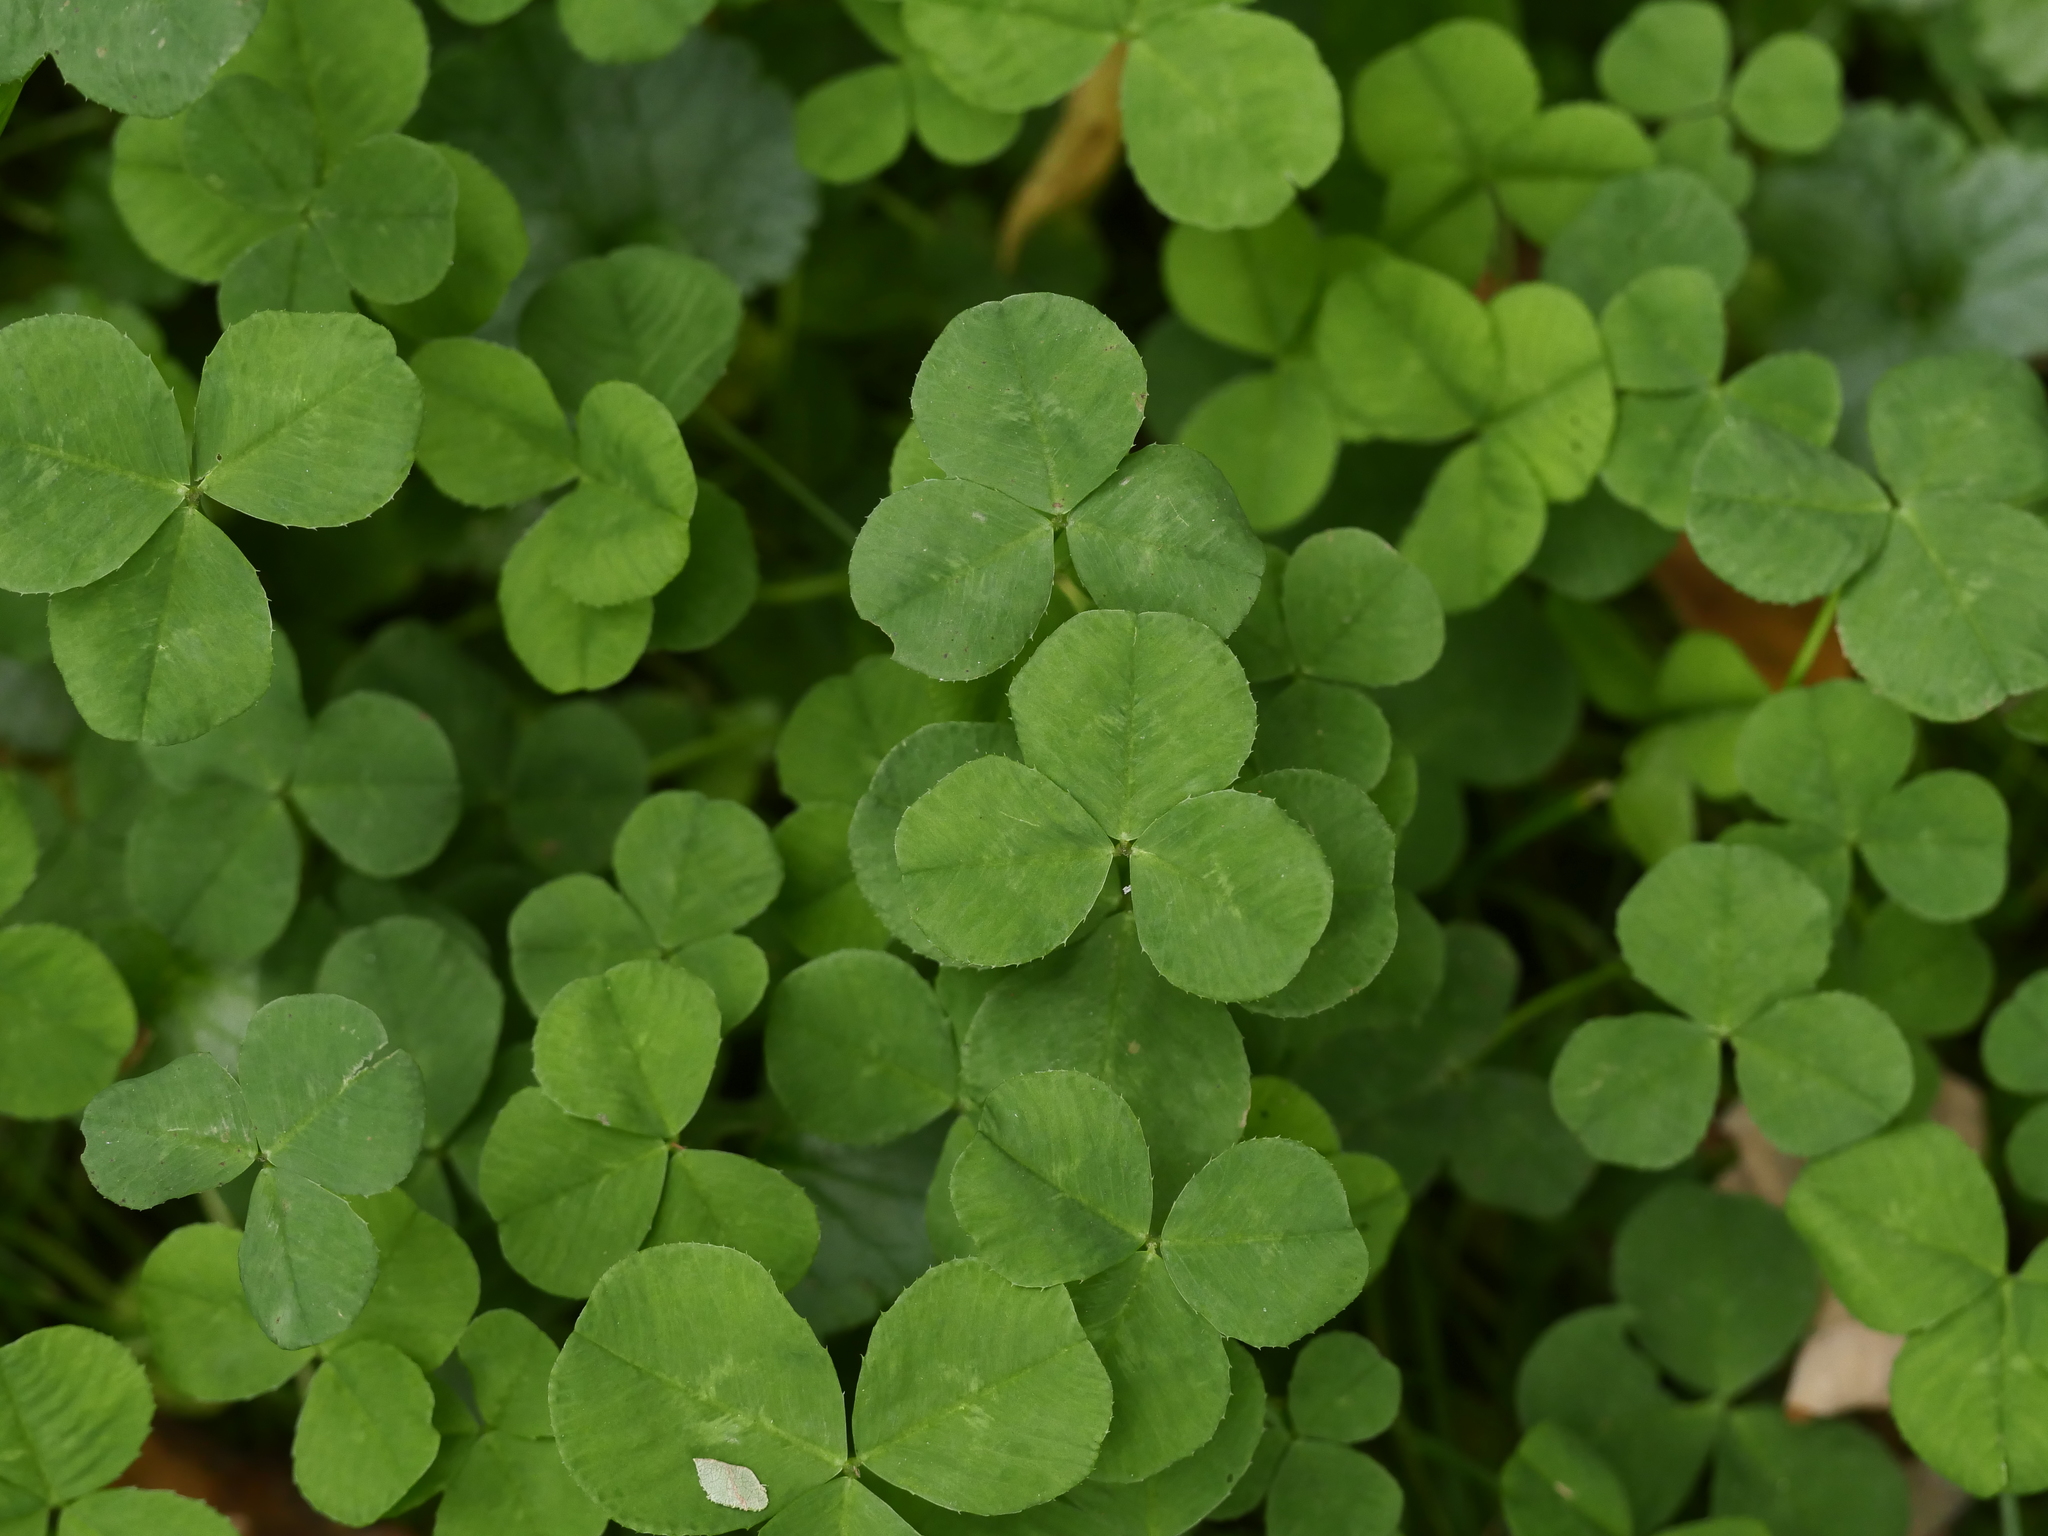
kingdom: Plantae
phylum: Tracheophyta
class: Magnoliopsida
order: Fabales
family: Fabaceae
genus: Trifolium
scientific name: Trifolium repens
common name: White clover
